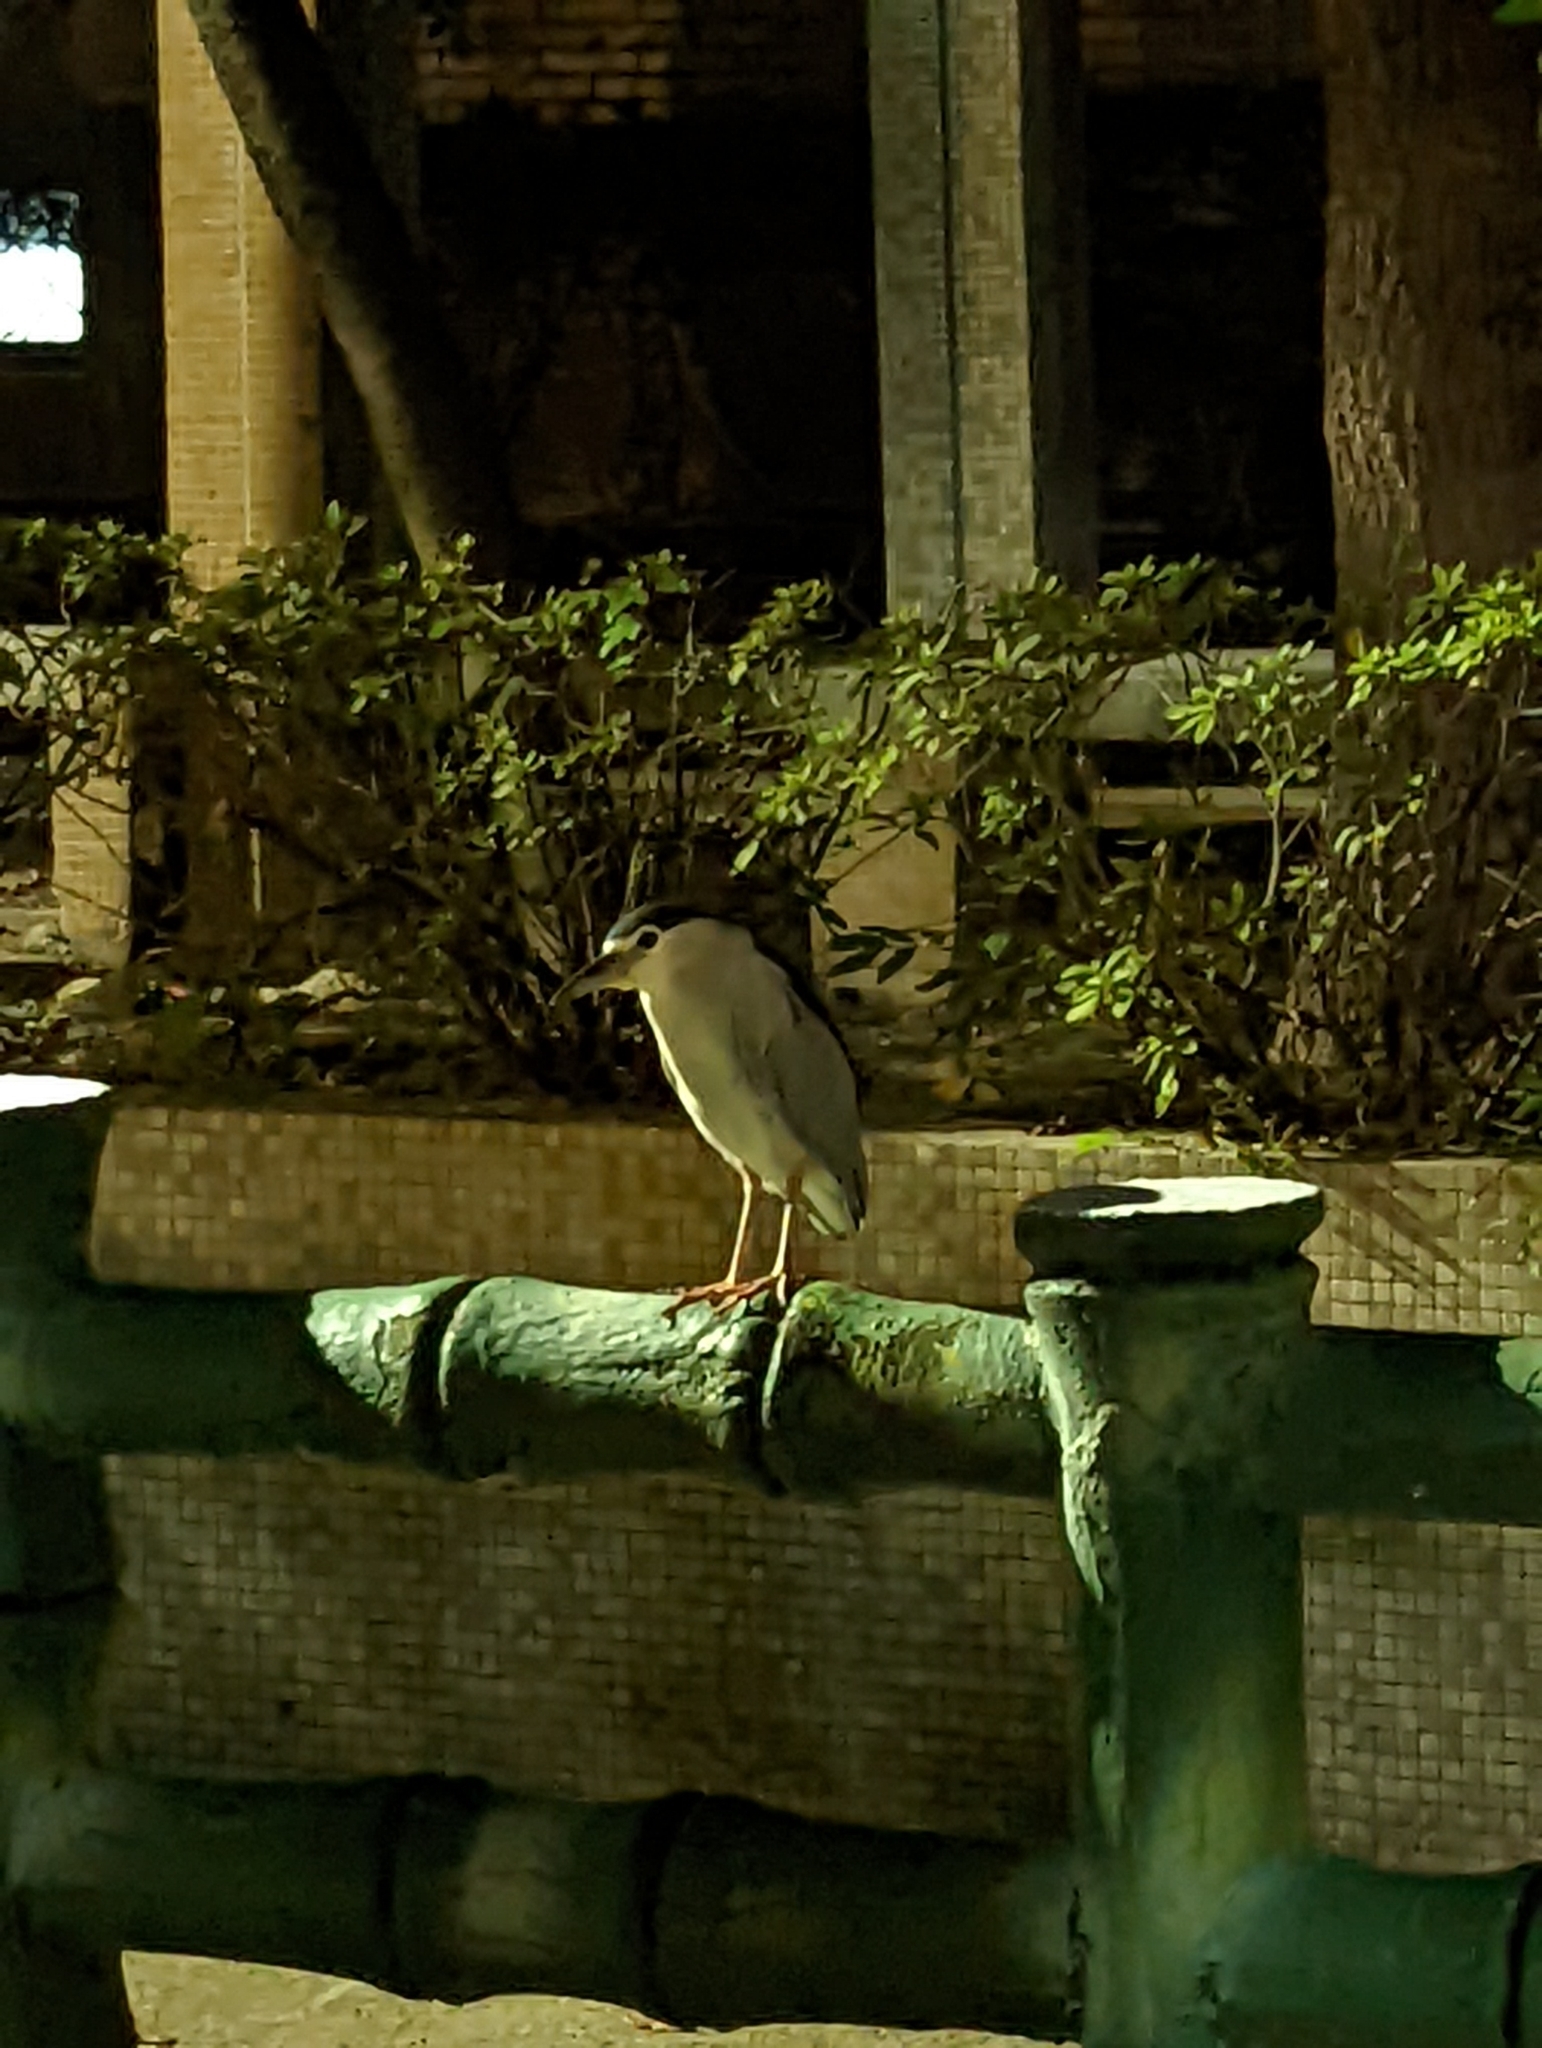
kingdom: Animalia
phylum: Chordata
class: Aves
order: Pelecaniformes
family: Ardeidae
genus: Nycticorax
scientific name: Nycticorax nycticorax
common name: Black-crowned night heron
